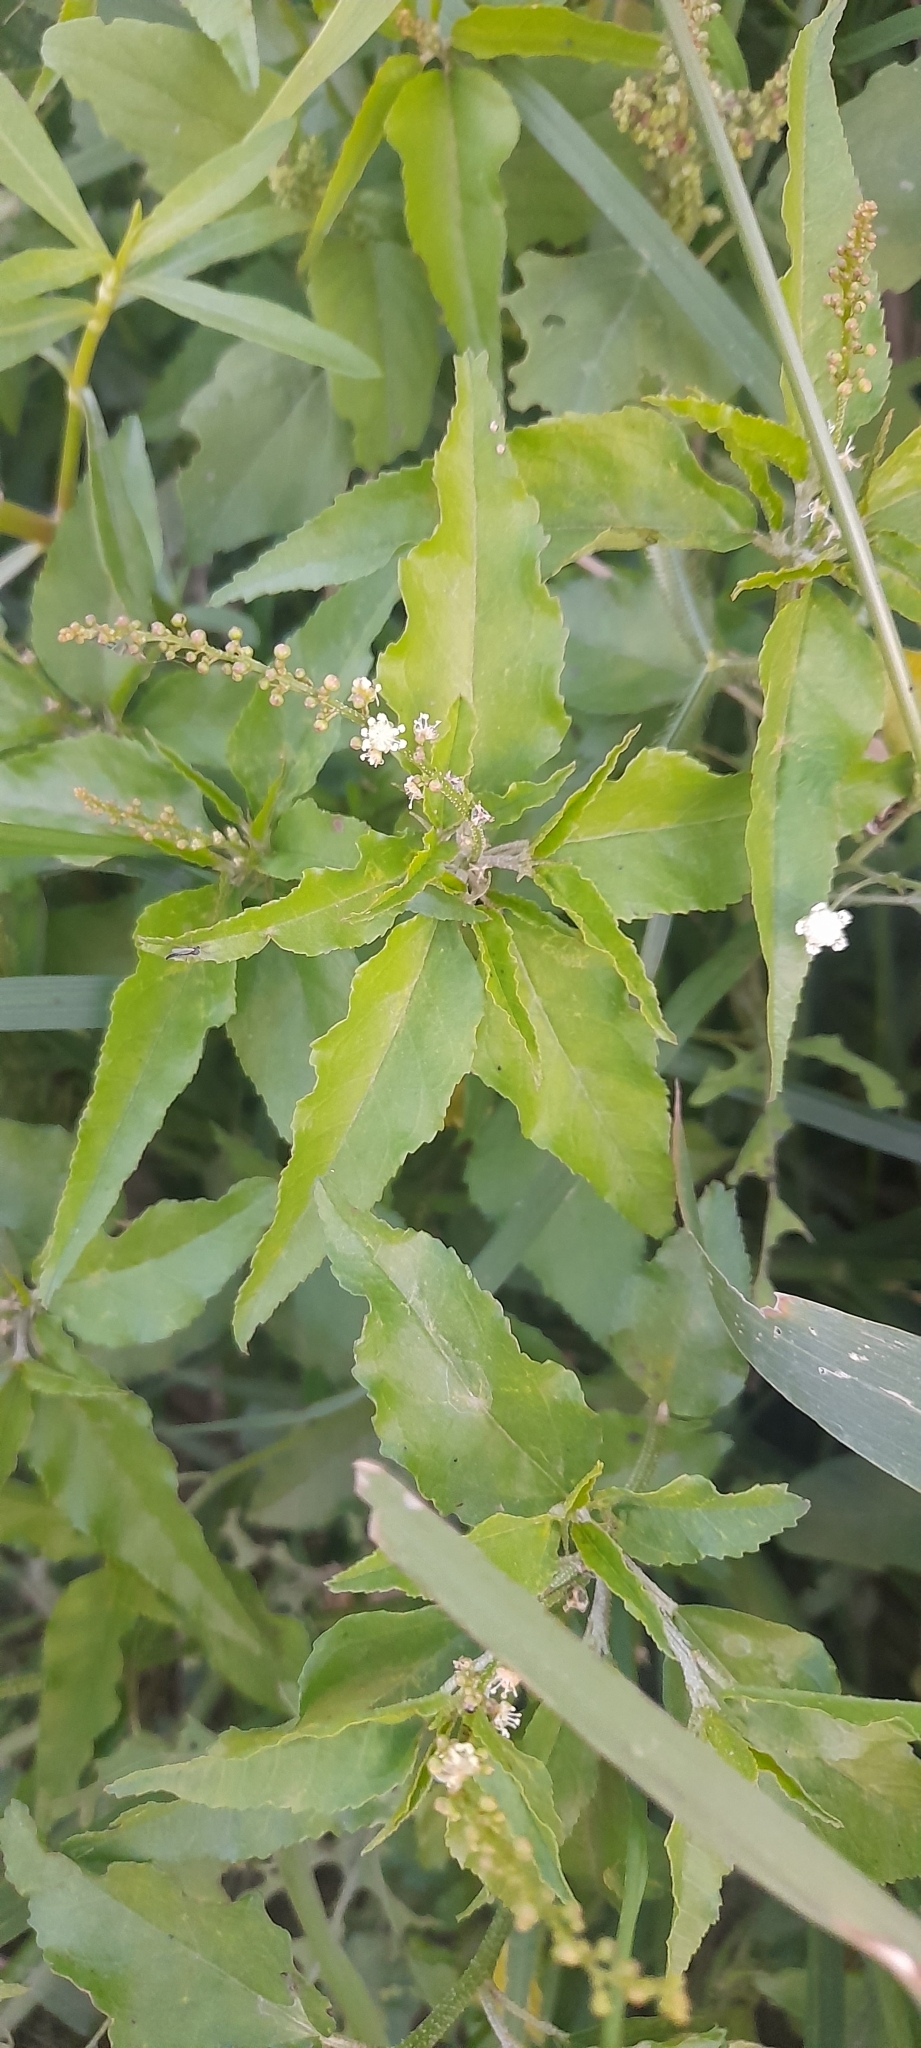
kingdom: Plantae
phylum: Tracheophyta
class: Magnoliopsida
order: Malpighiales
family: Euphorbiaceae
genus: Croton
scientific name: Croton bonplandianus
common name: Bonpland's croton
